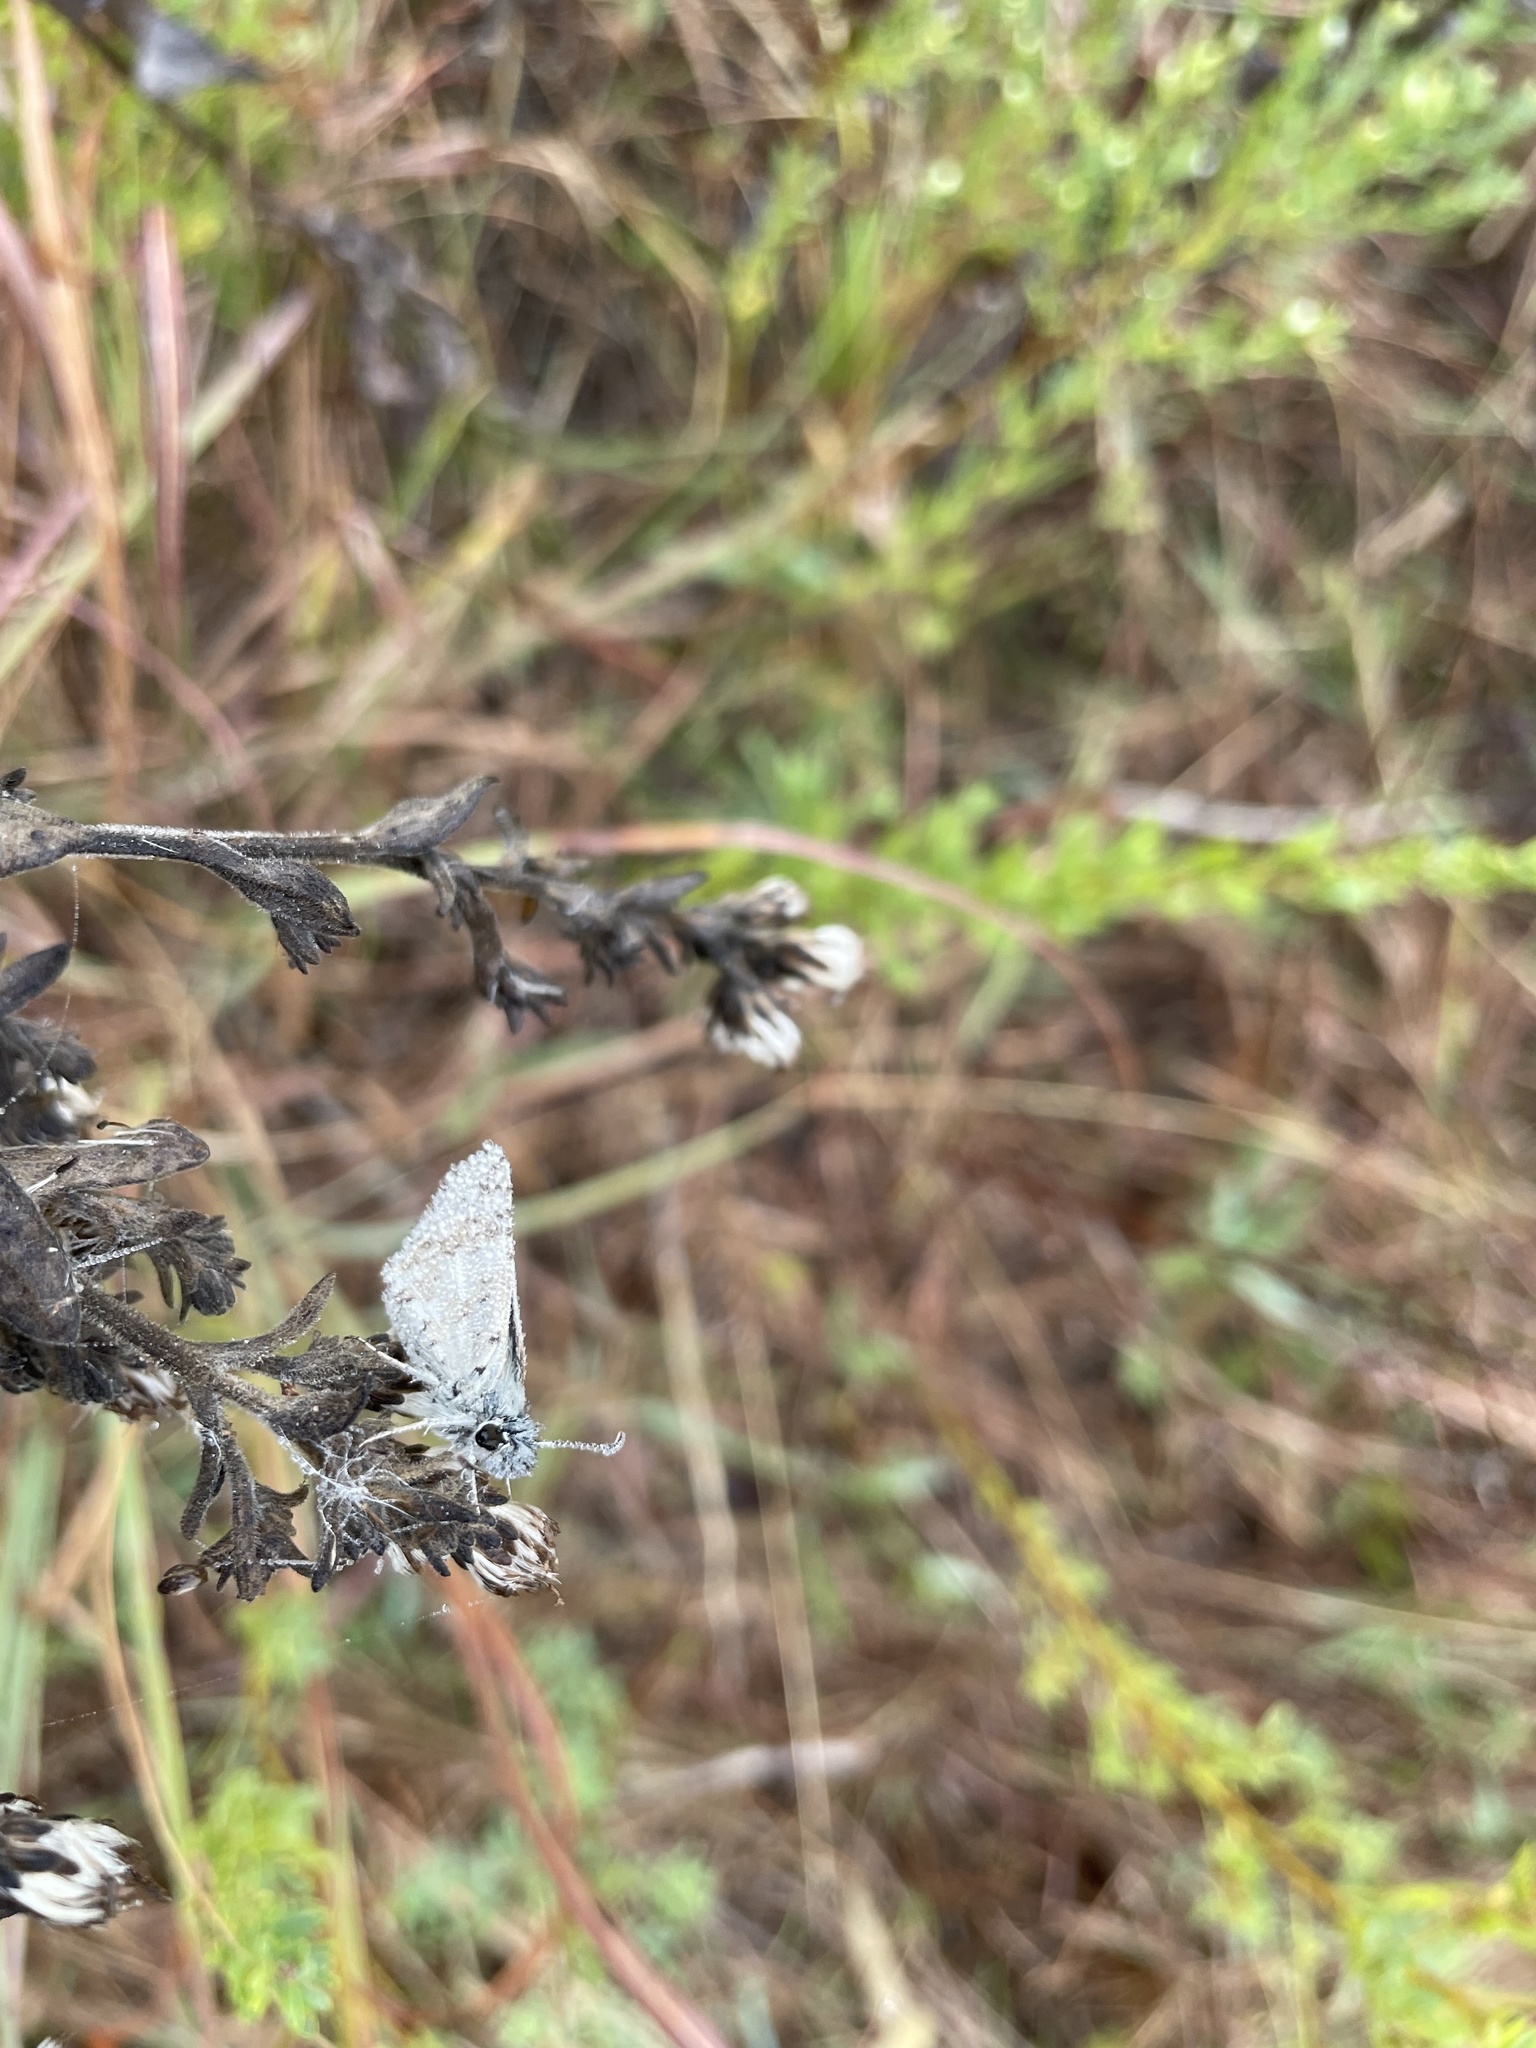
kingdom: Animalia
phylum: Arthropoda
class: Insecta
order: Lepidoptera
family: Hesperiidae
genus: Burnsius
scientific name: Burnsius communis
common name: Common checkered-skipper
